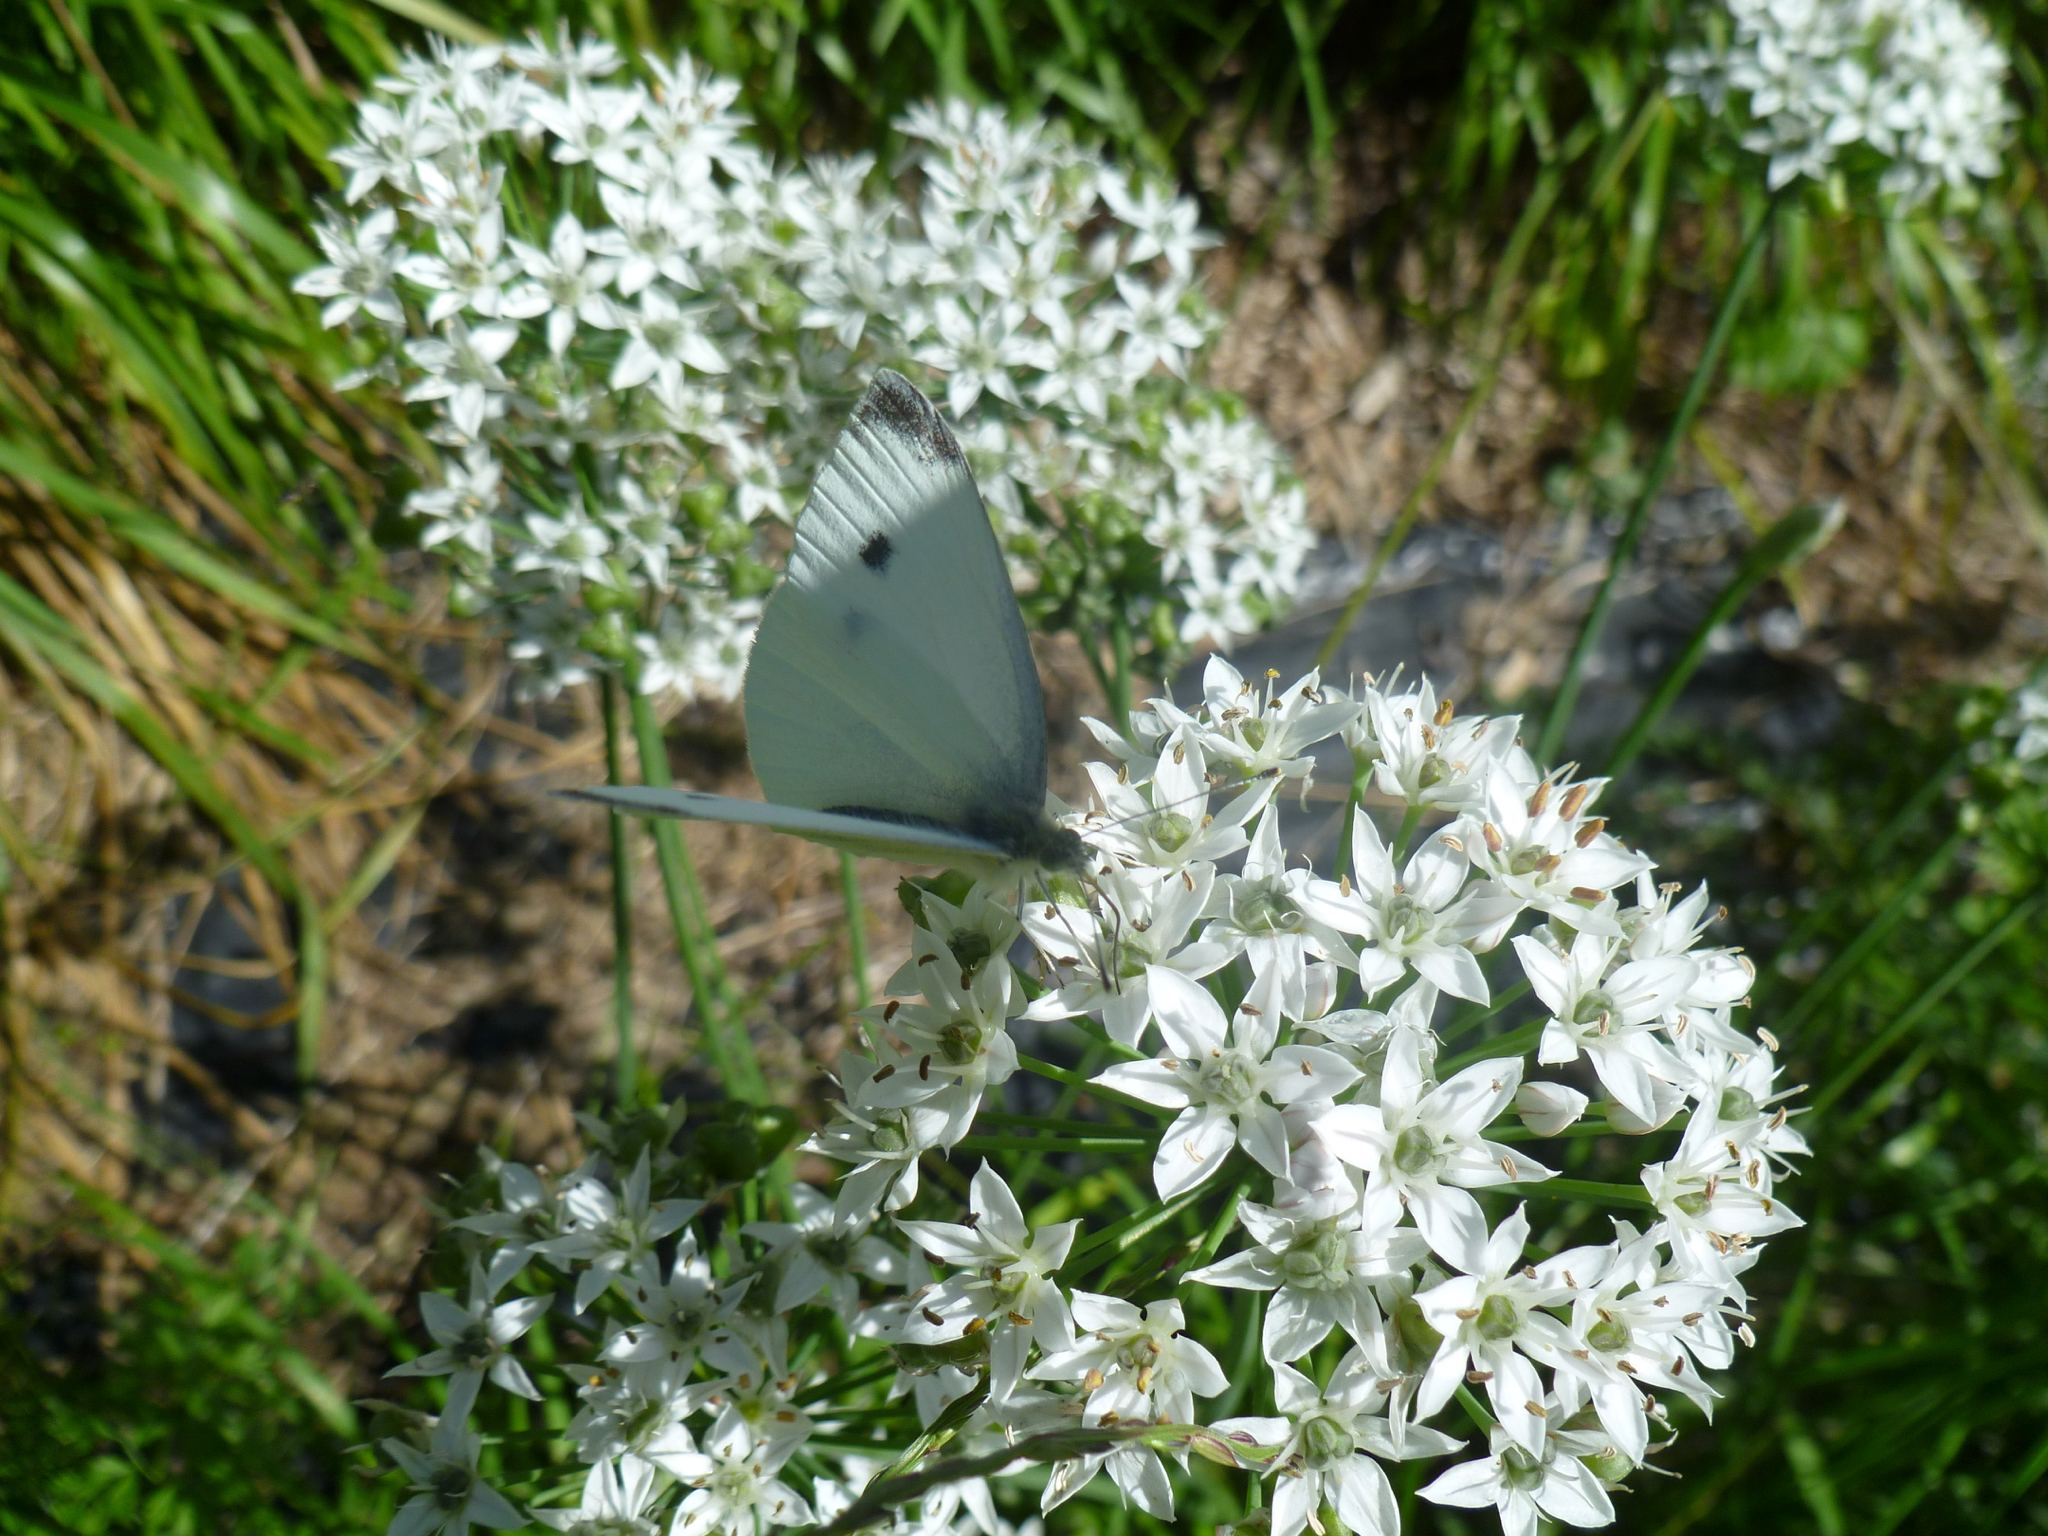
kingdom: Animalia
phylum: Arthropoda
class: Insecta
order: Lepidoptera
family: Pieridae
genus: Pieris
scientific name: Pieris rapae
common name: Small white
